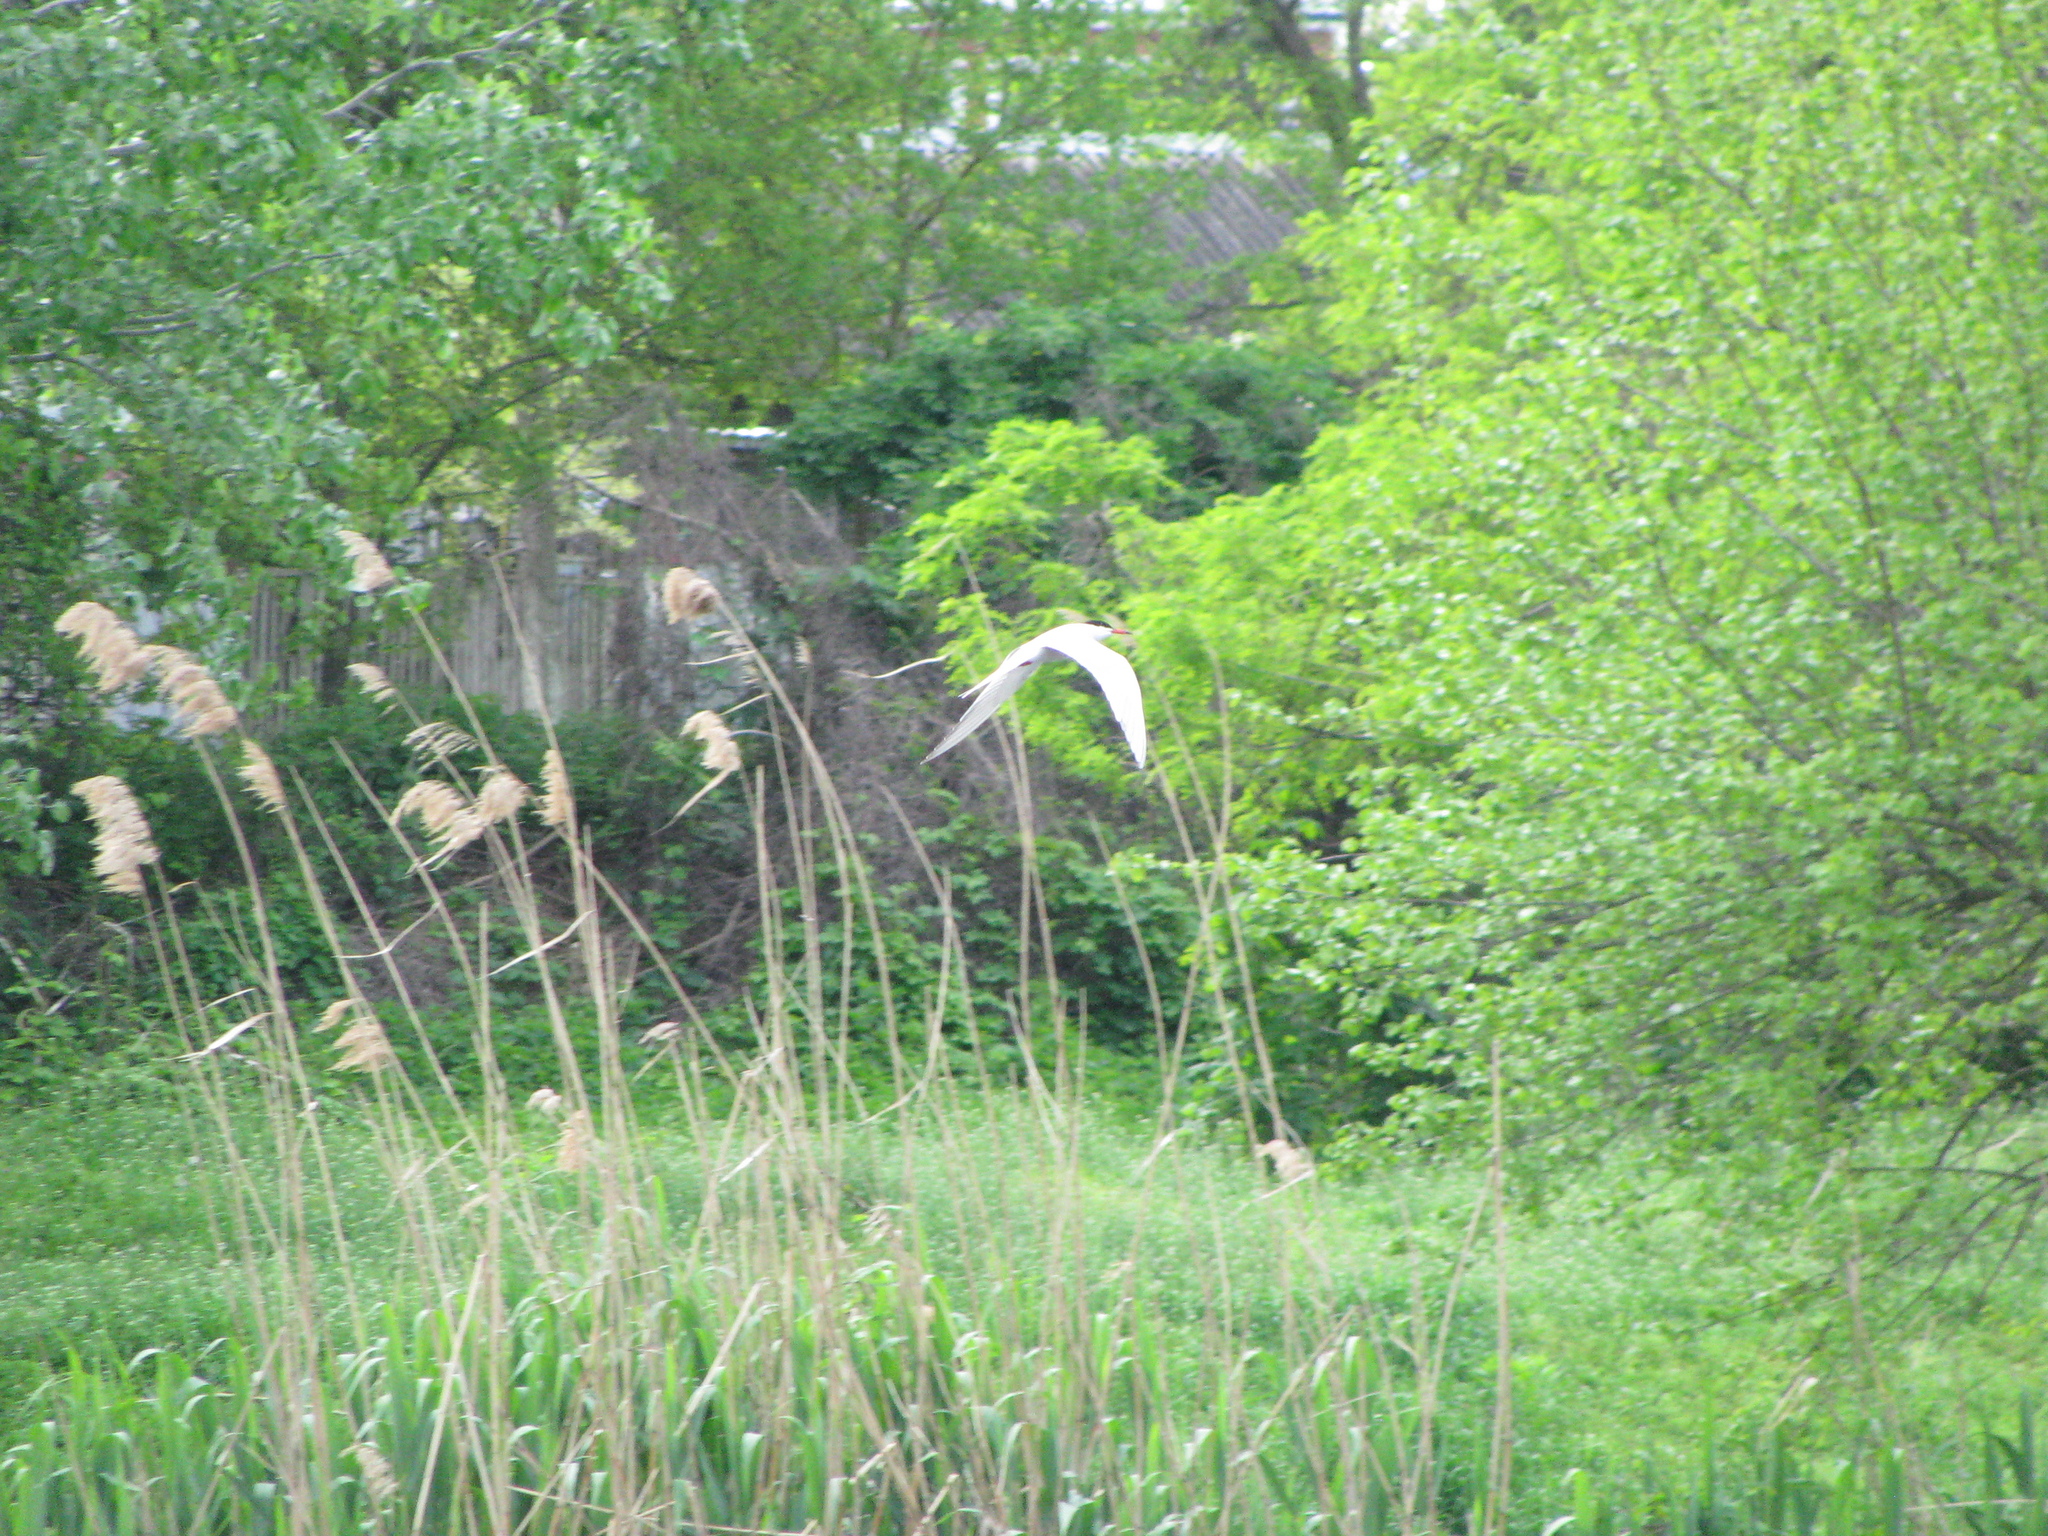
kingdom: Animalia
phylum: Chordata
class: Aves
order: Charadriiformes
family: Laridae
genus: Sterna
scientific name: Sterna hirundo
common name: Common tern
